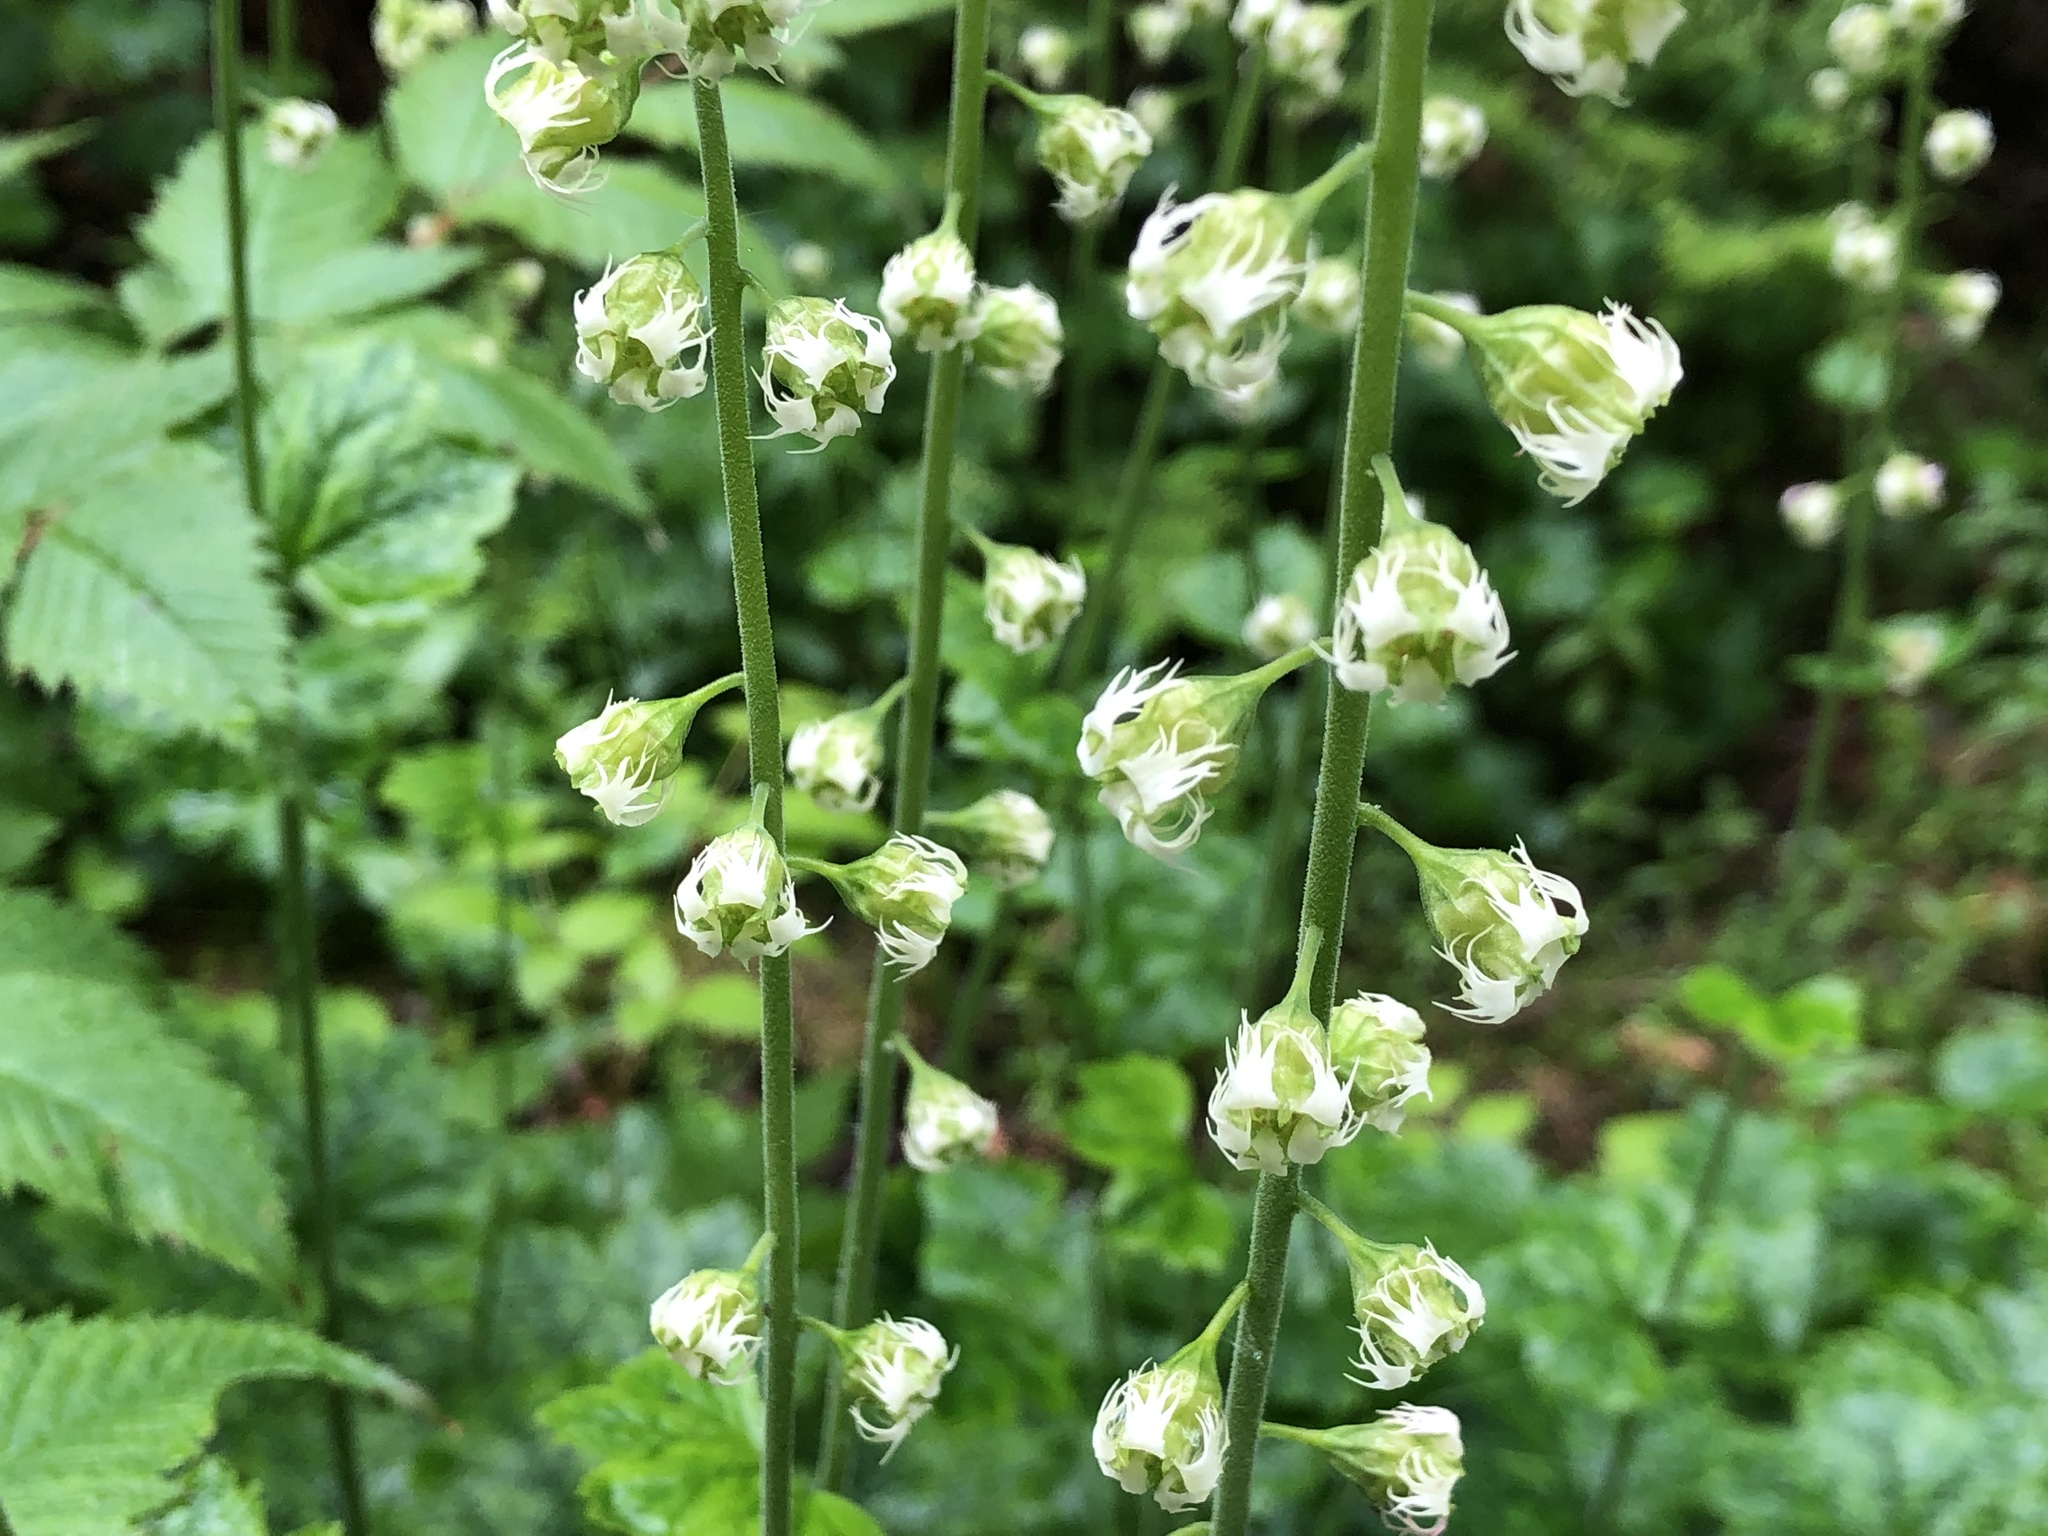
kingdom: Plantae
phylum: Tracheophyta
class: Magnoliopsida
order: Saxifragales
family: Saxifragaceae
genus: Tellima
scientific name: Tellima grandiflora
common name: Fringecups
